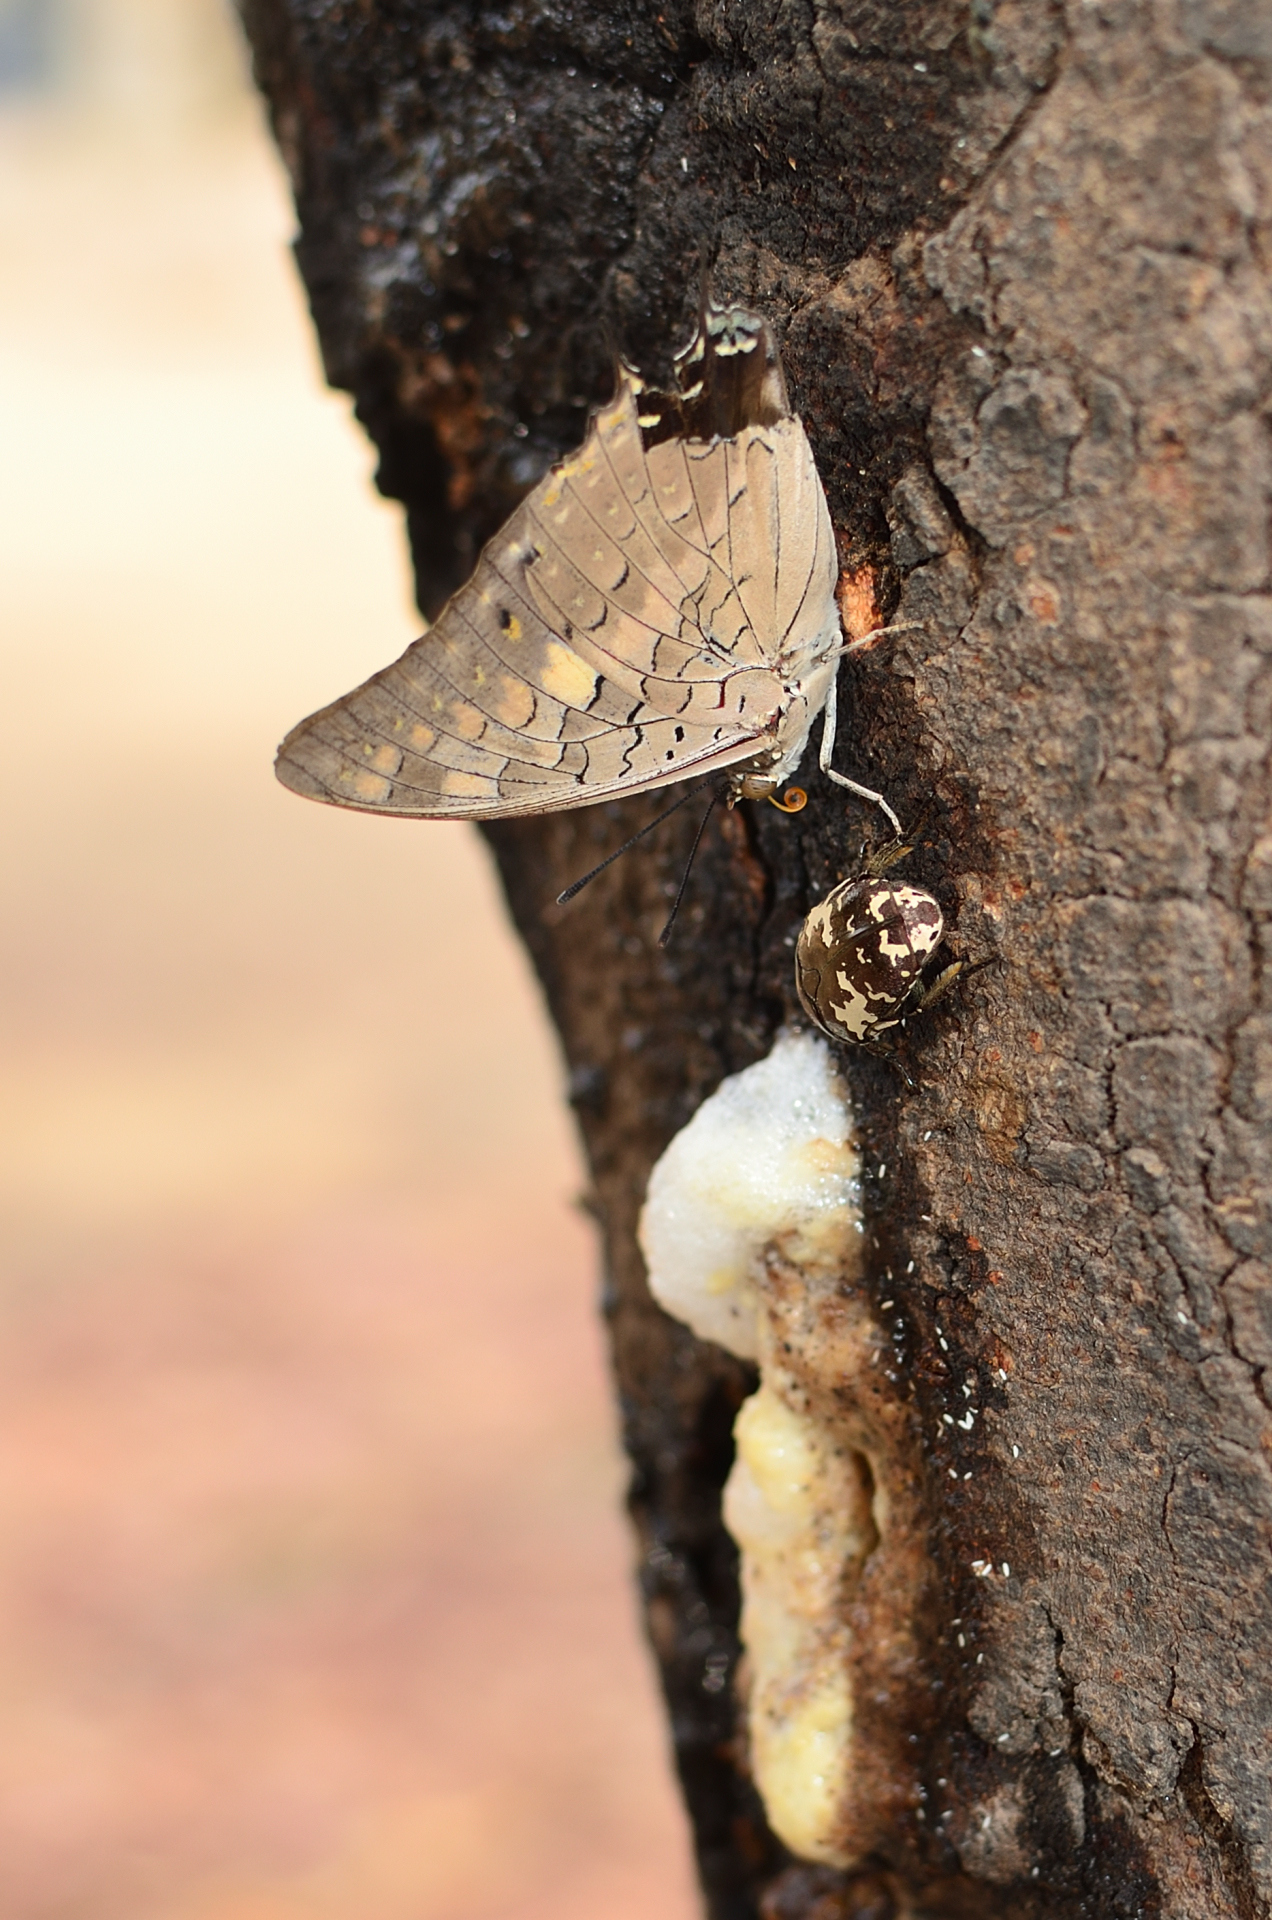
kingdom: Animalia
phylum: Arthropoda
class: Insecta
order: Lepidoptera
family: Nymphalidae
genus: Charaxes
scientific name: Charaxes solon
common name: Black rajah
